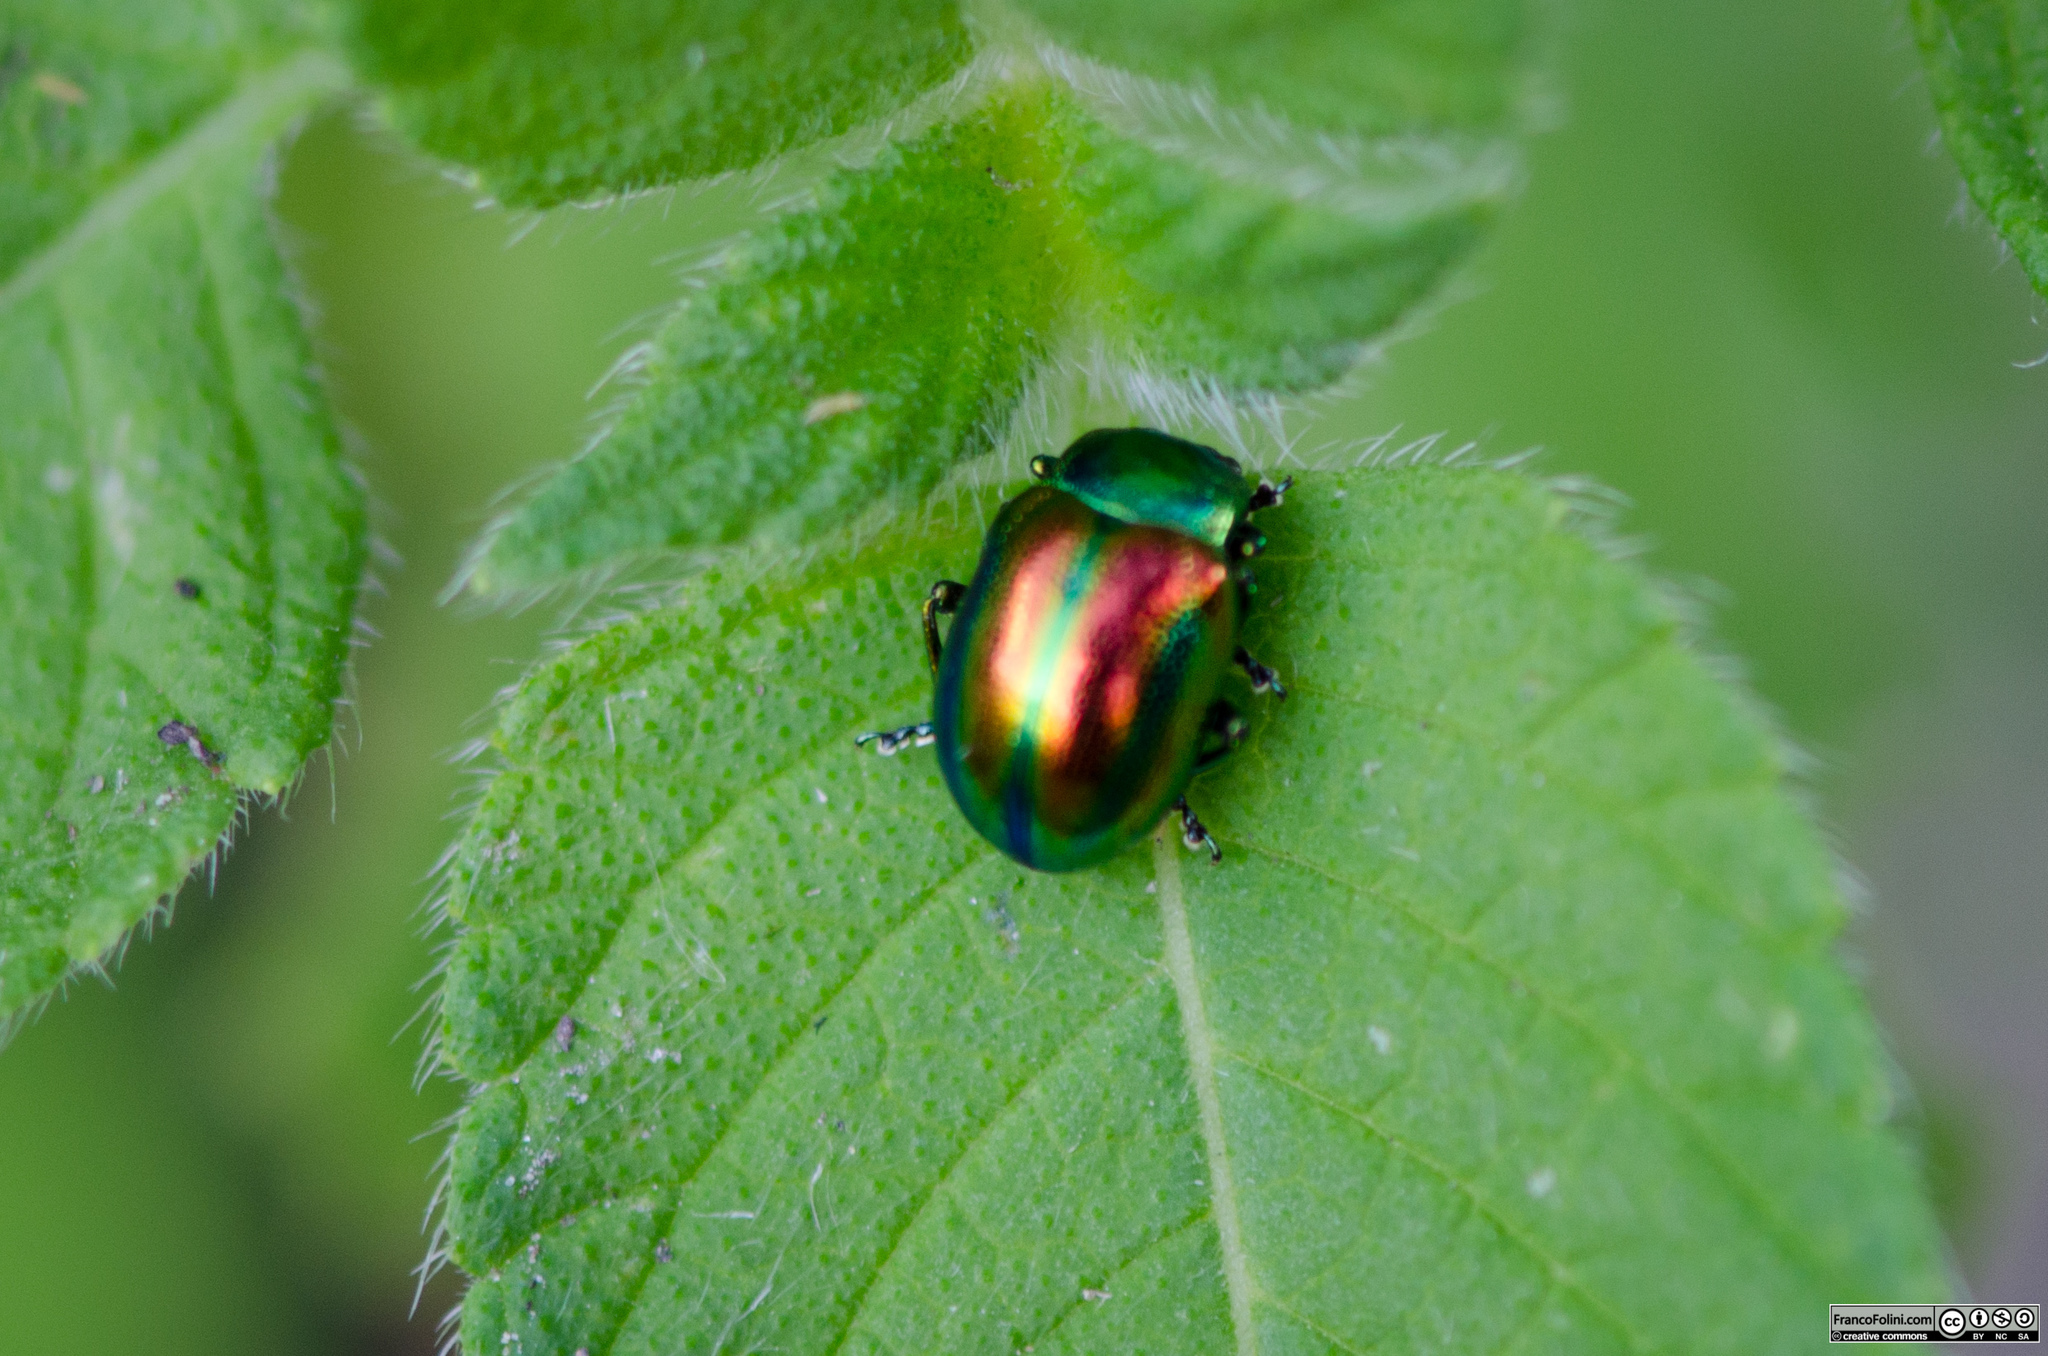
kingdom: Animalia
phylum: Arthropoda
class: Insecta
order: Coleoptera
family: Chrysomelidae
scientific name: Chrysomelidae
